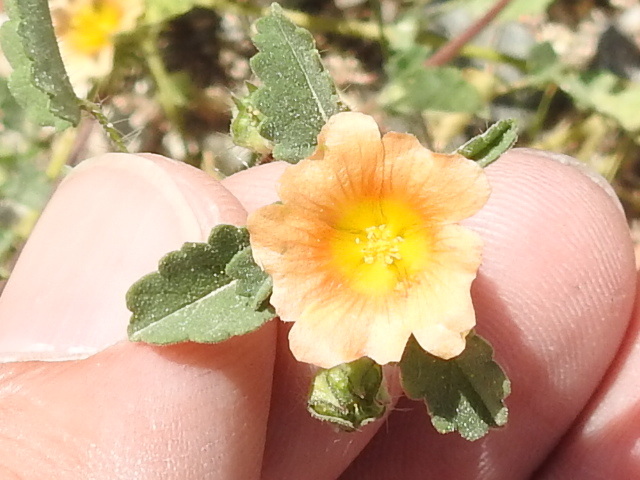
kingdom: Plantae
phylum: Tracheophyta
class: Magnoliopsida
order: Malvales
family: Malvaceae
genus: Sida
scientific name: Sida abutilifolia
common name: Spreading fanpetals
